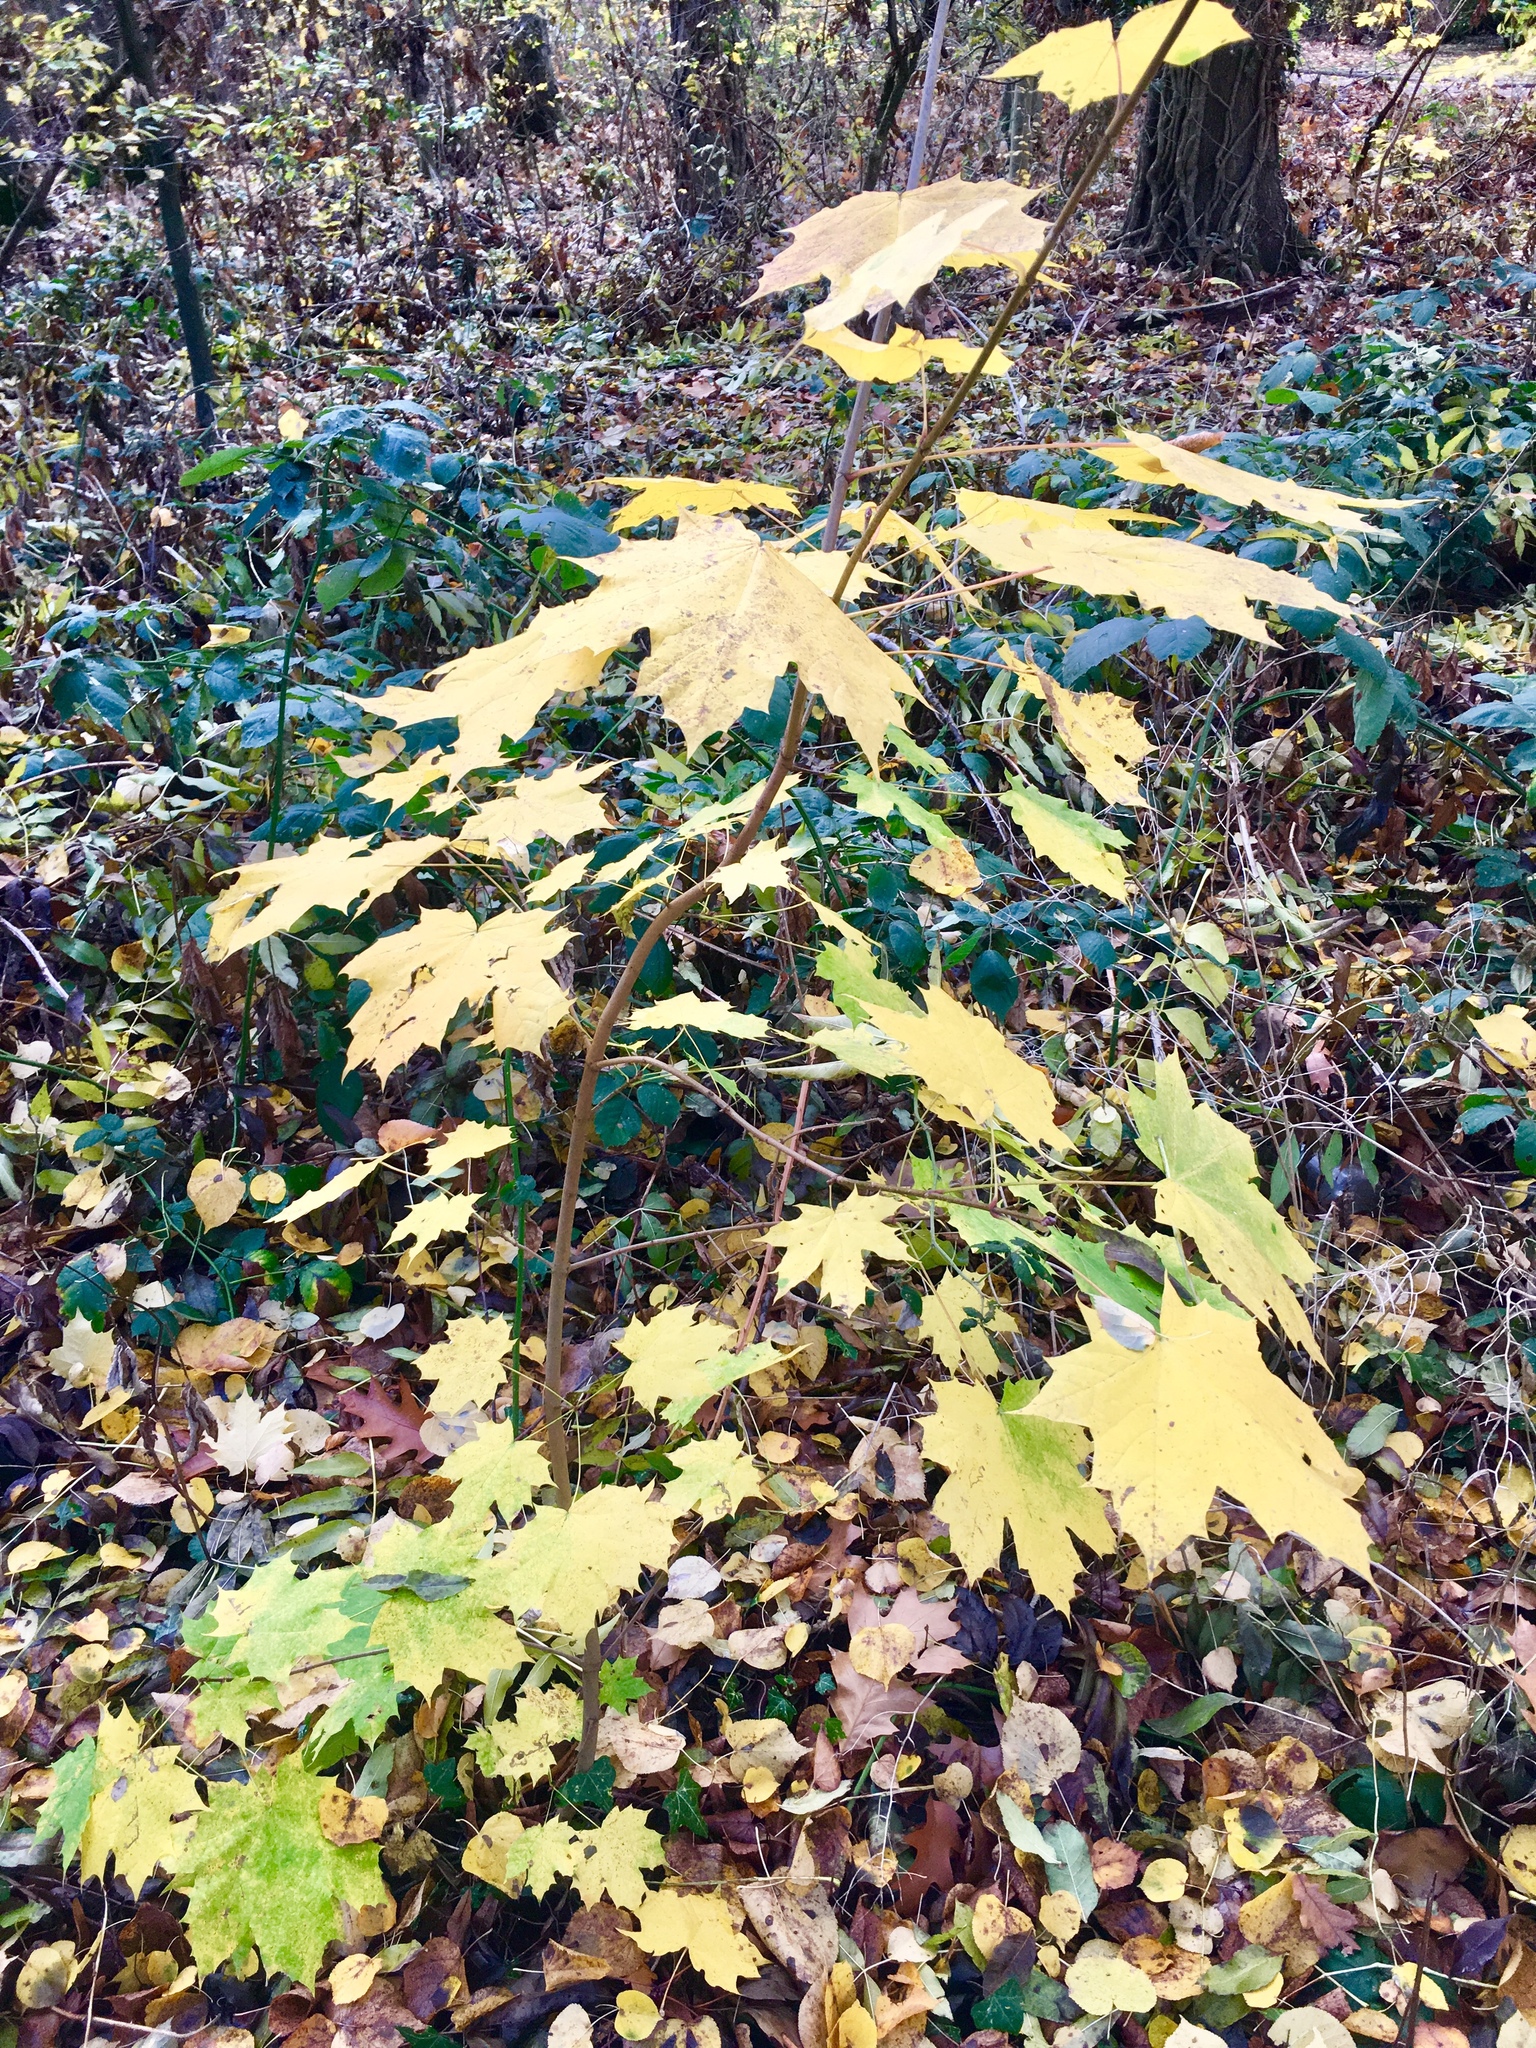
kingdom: Plantae
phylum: Tracheophyta
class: Magnoliopsida
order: Sapindales
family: Sapindaceae
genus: Acer
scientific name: Acer platanoides
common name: Norway maple
